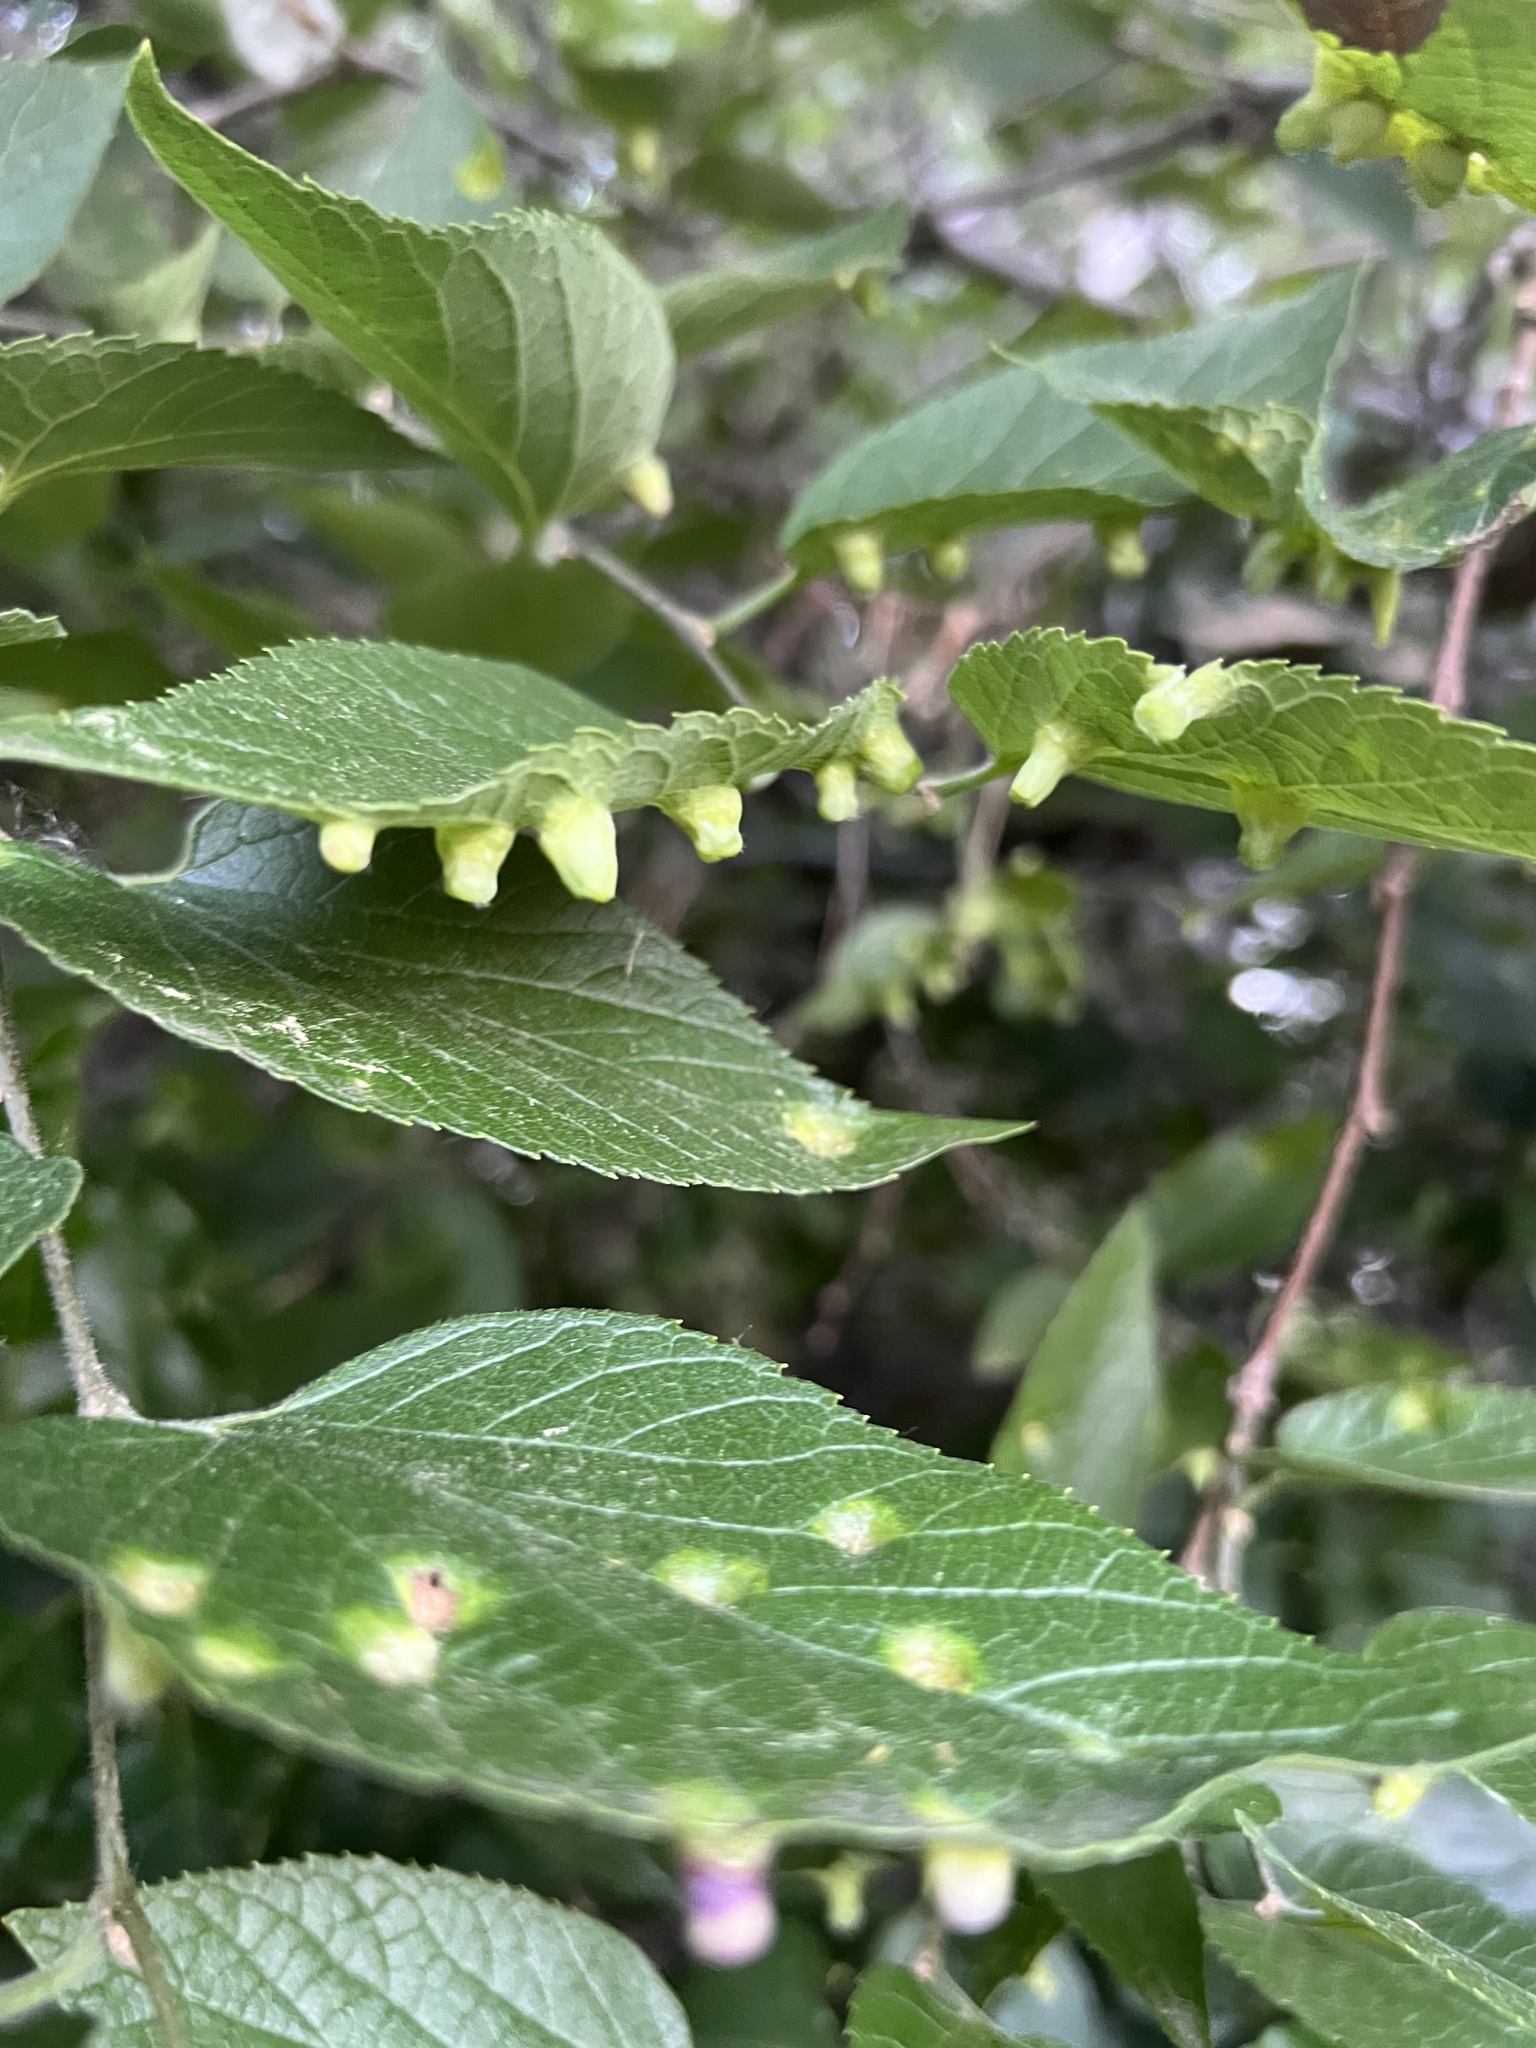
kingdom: Animalia
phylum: Arthropoda
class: Insecta
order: Hemiptera
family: Aphalaridae
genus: Pachypsylla
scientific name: Pachypsylla celtidismamma
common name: Hackberry nipplegall psyllid
